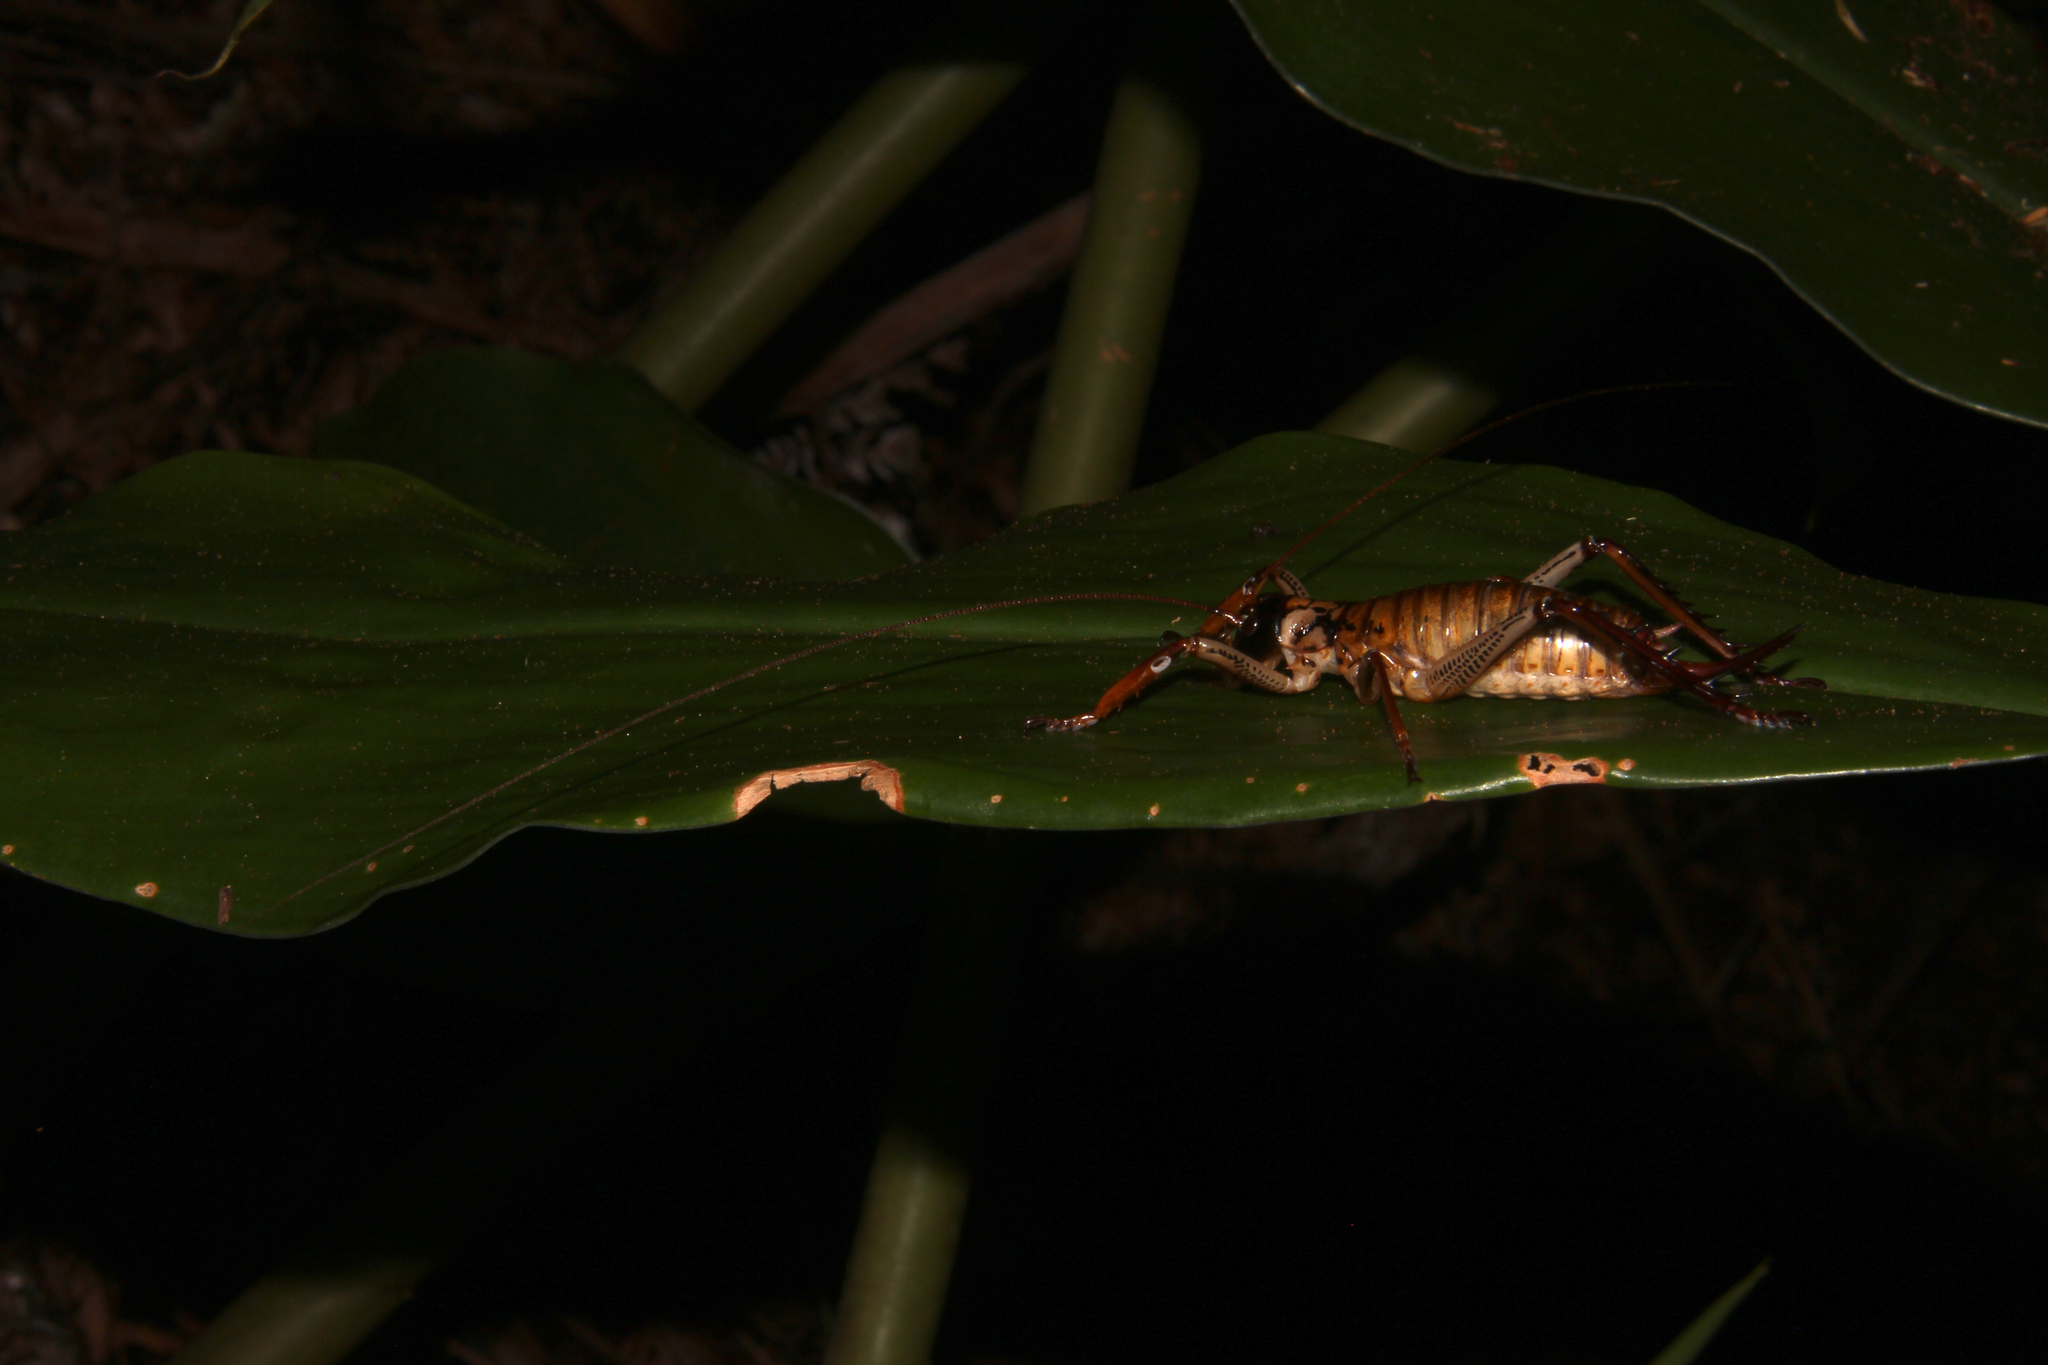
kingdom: Animalia
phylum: Arthropoda
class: Insecta
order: Orthoptera
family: Anostostomatidae
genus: Hemideina
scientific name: Hemideina thoracica
